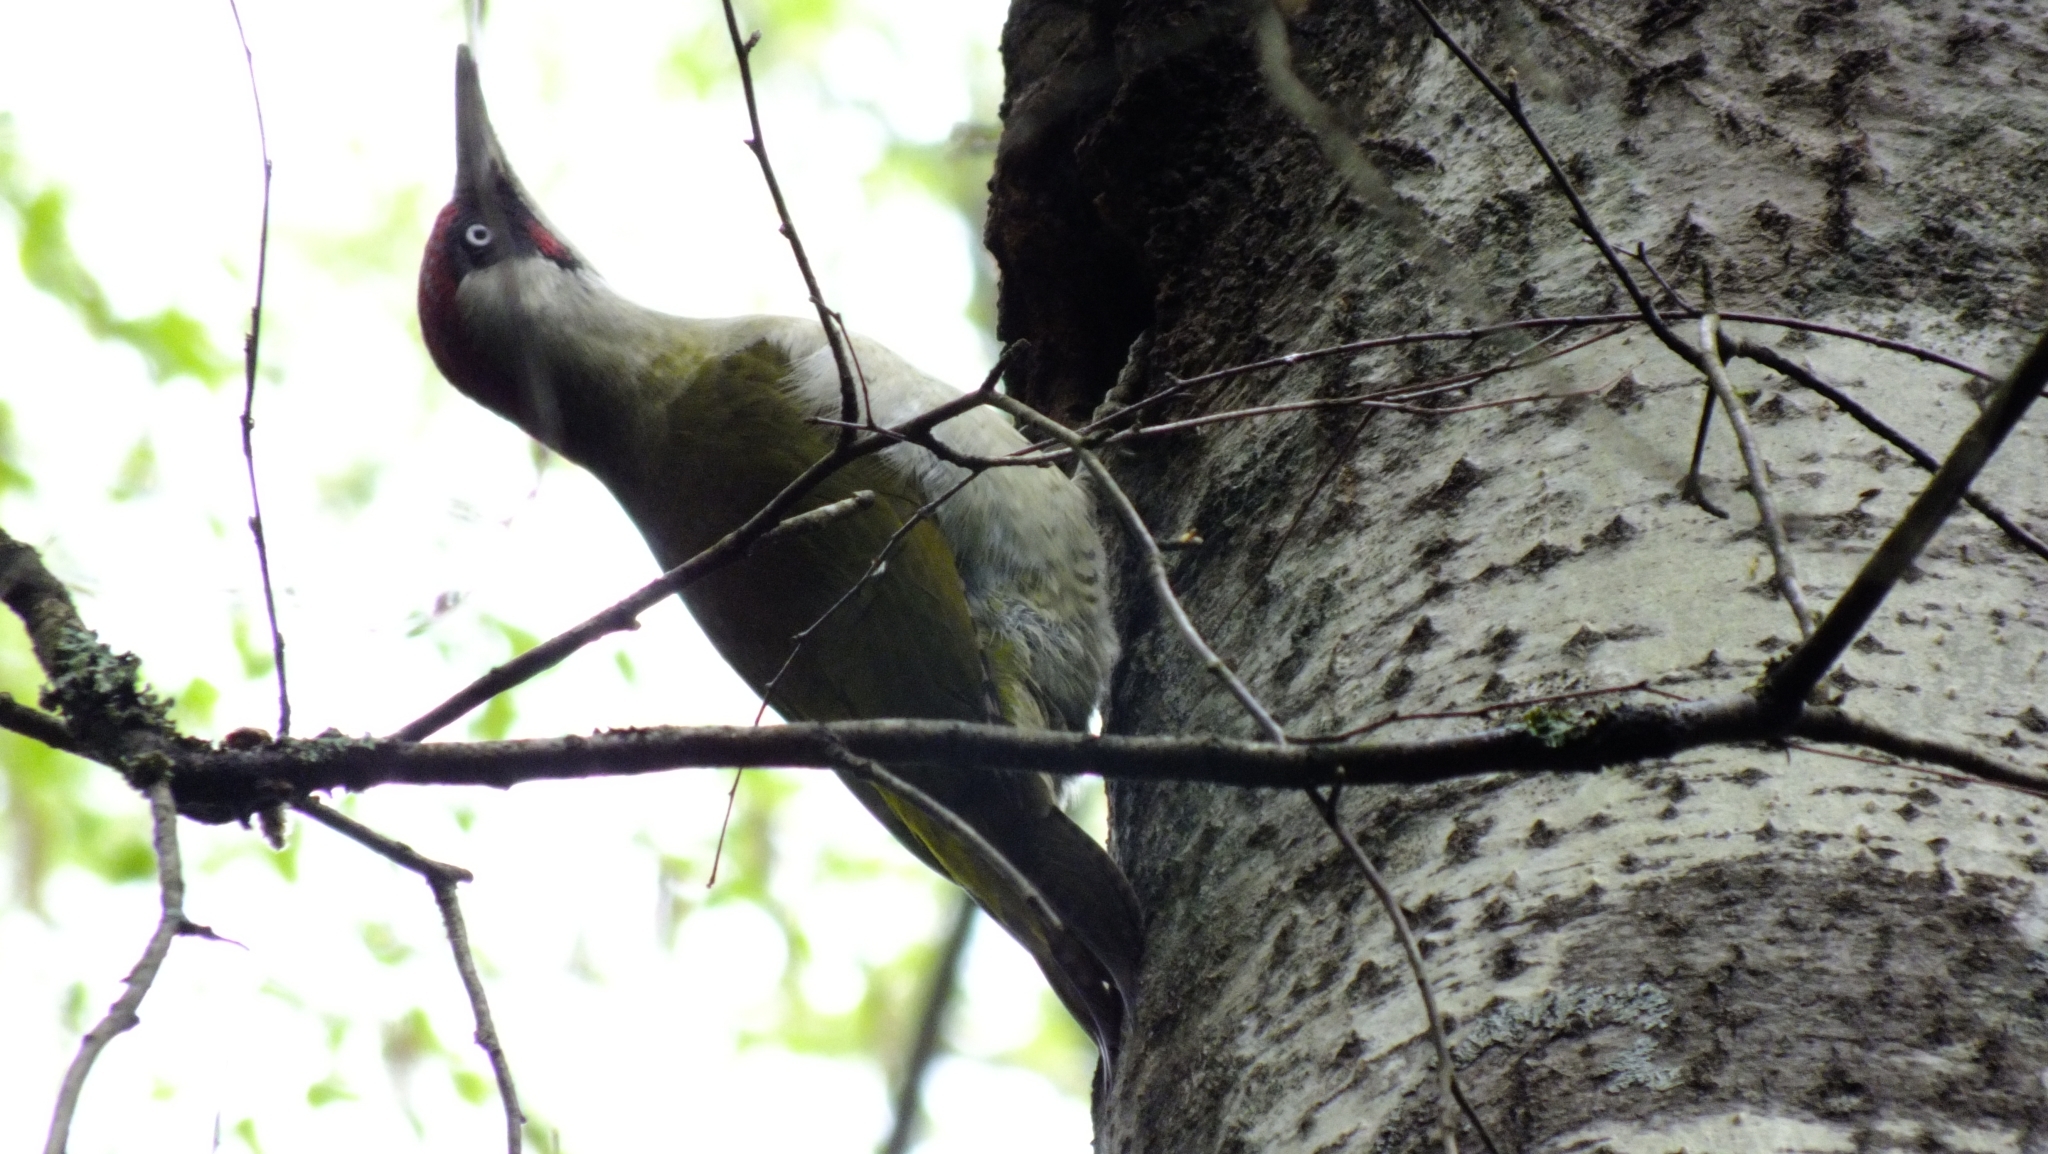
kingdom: Animalia
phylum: Chordata
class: Aves
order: Piciformes
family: Picidae
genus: Picus
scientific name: Picus viridis
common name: European green woodpecker
